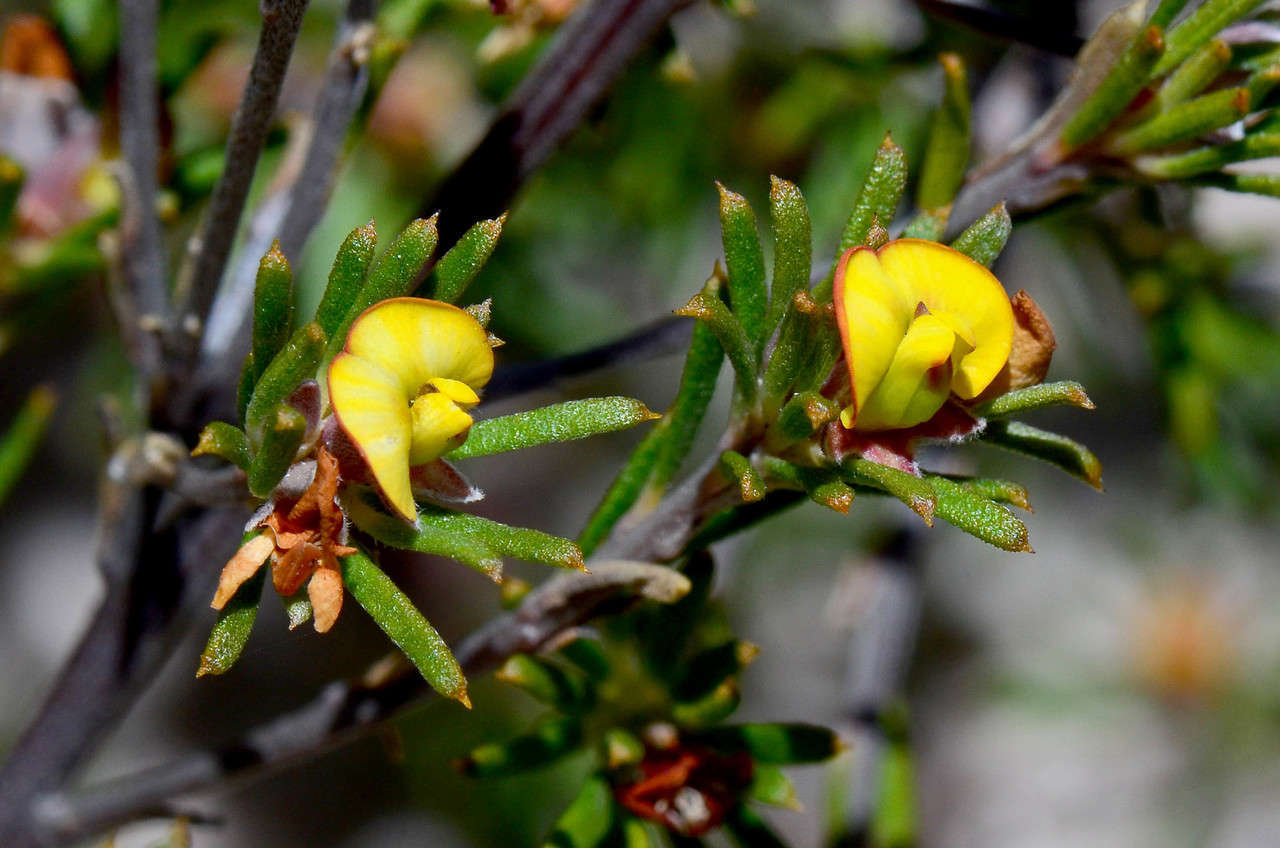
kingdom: Plantae
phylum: Tracheophyta
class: Magnoliopsida
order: Fabales
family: Fabaceae
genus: Phyllota
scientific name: Phyllota pleurandroides
